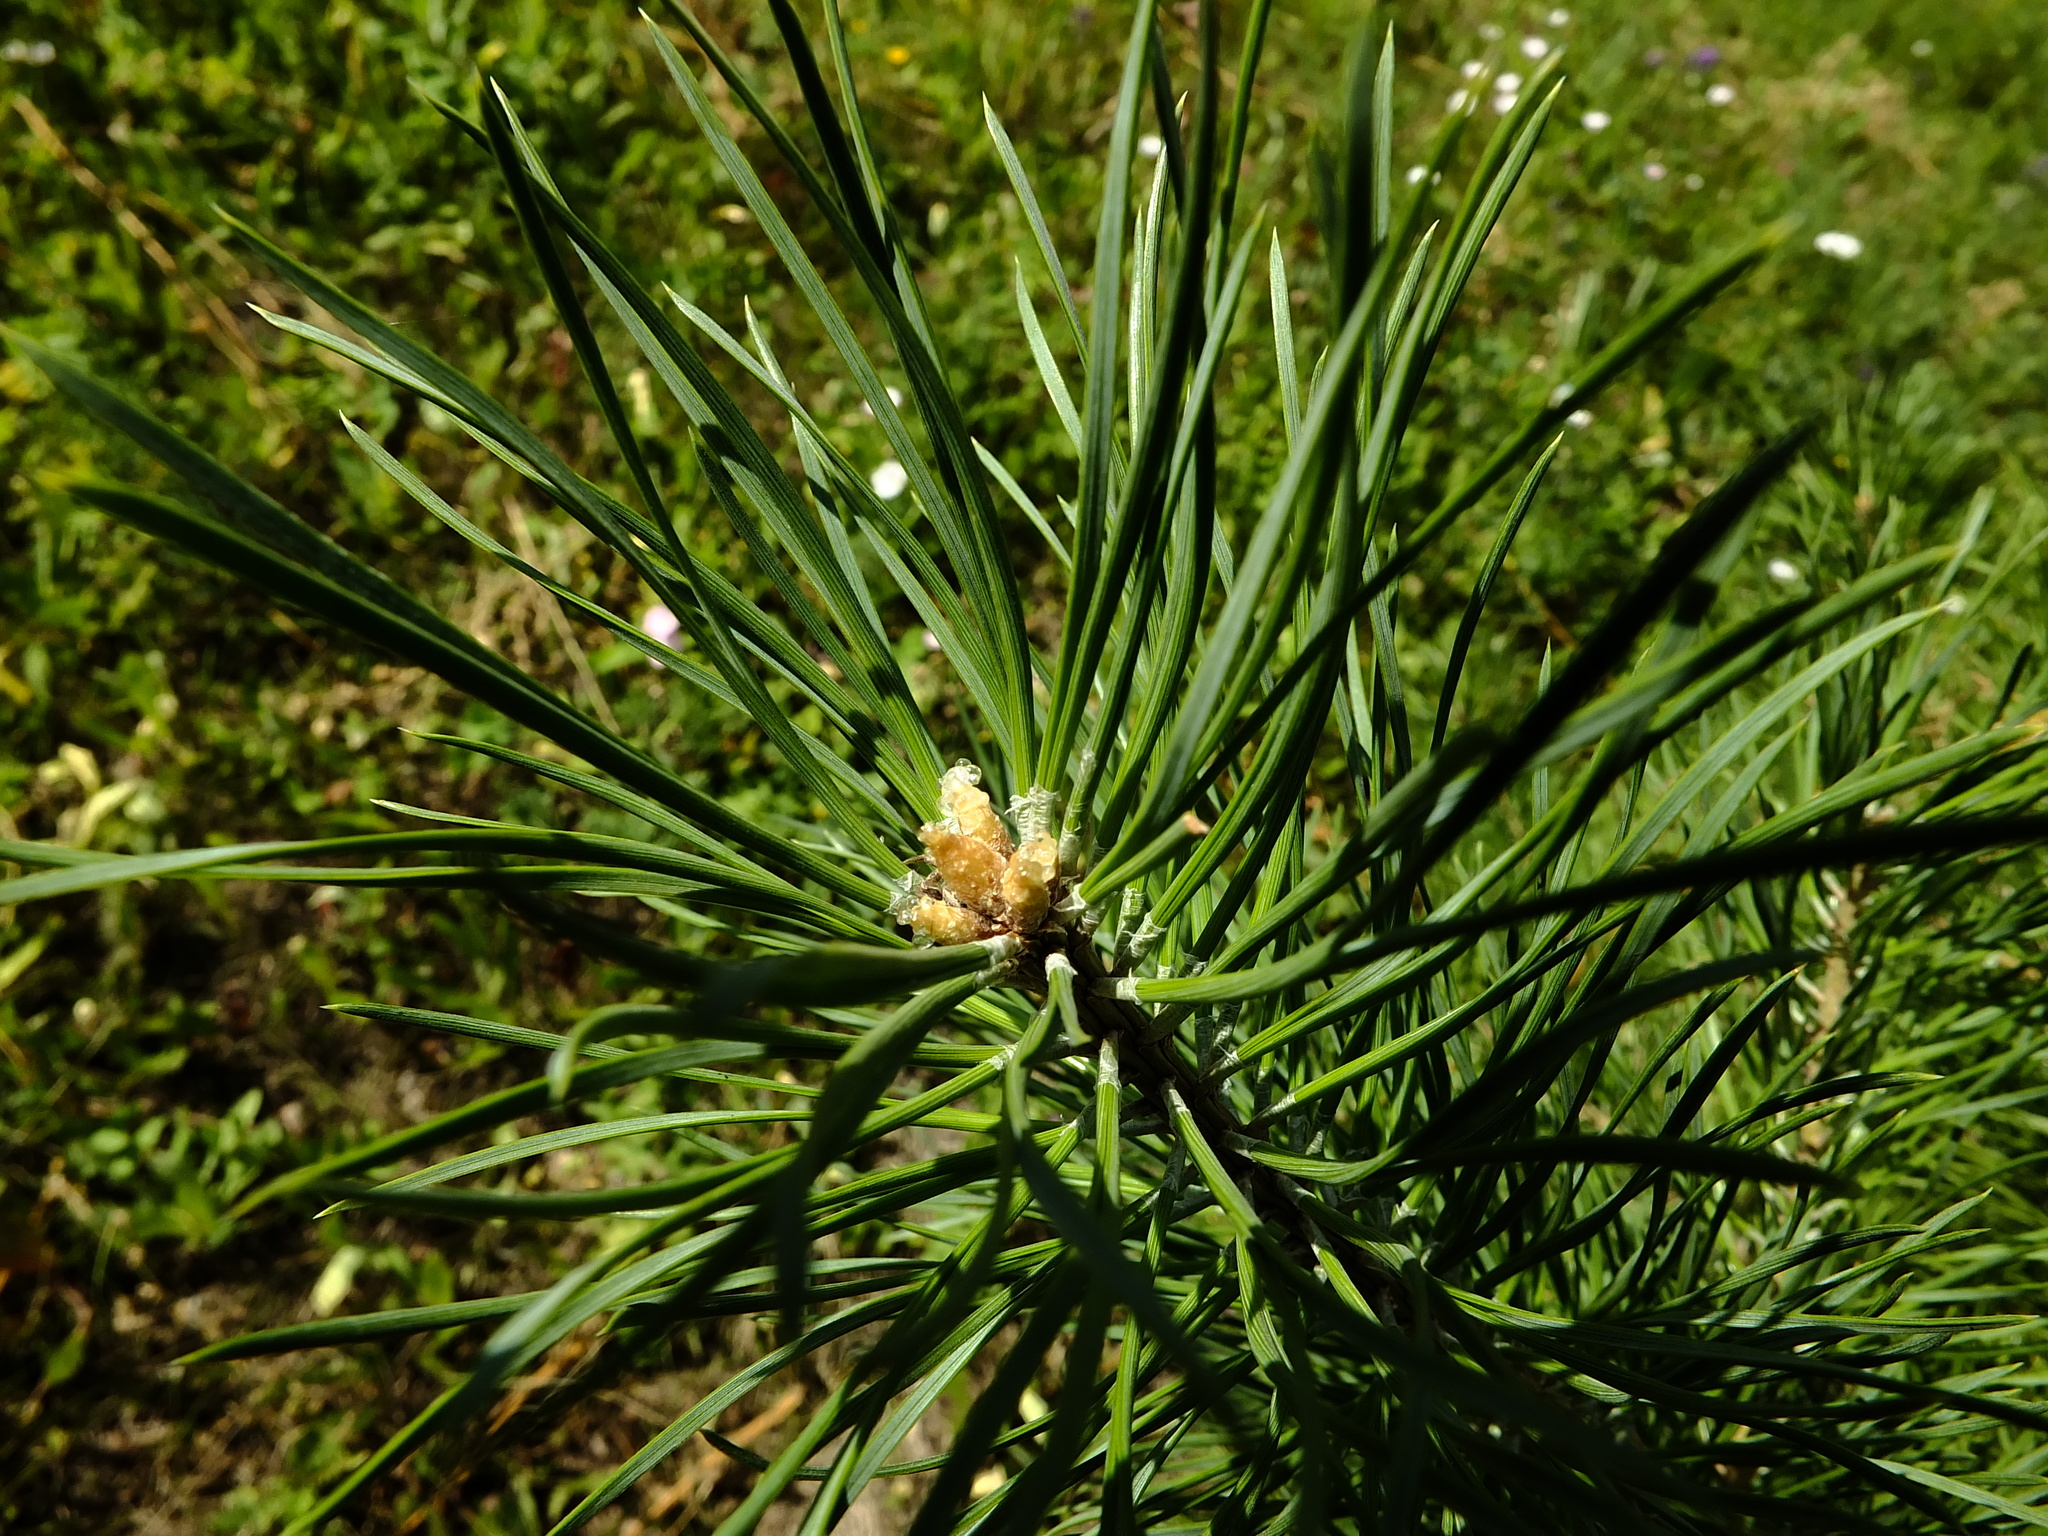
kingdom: Plantae
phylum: Tracheophyta
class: Pinopsida
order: Pinales
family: Pinaceae
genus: Pinus
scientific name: Pinus sylvestris
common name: Scots pine
